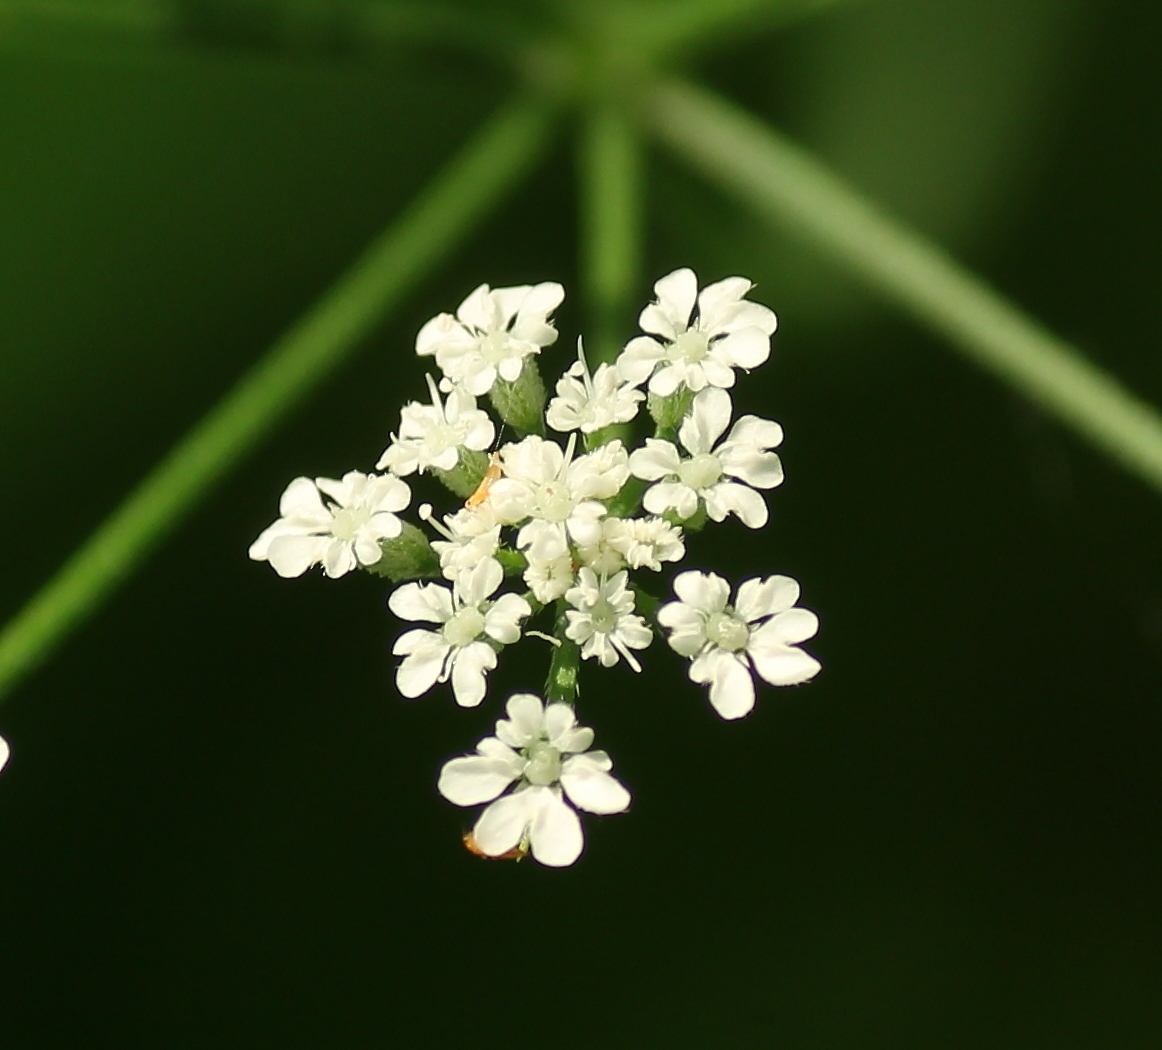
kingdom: Plantae
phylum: Tracheophyta
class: Magnoliopsida
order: Apiales
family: Apiaceae
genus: Torilis
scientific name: Torilis arvensis
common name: Spreading hedge-parsley
